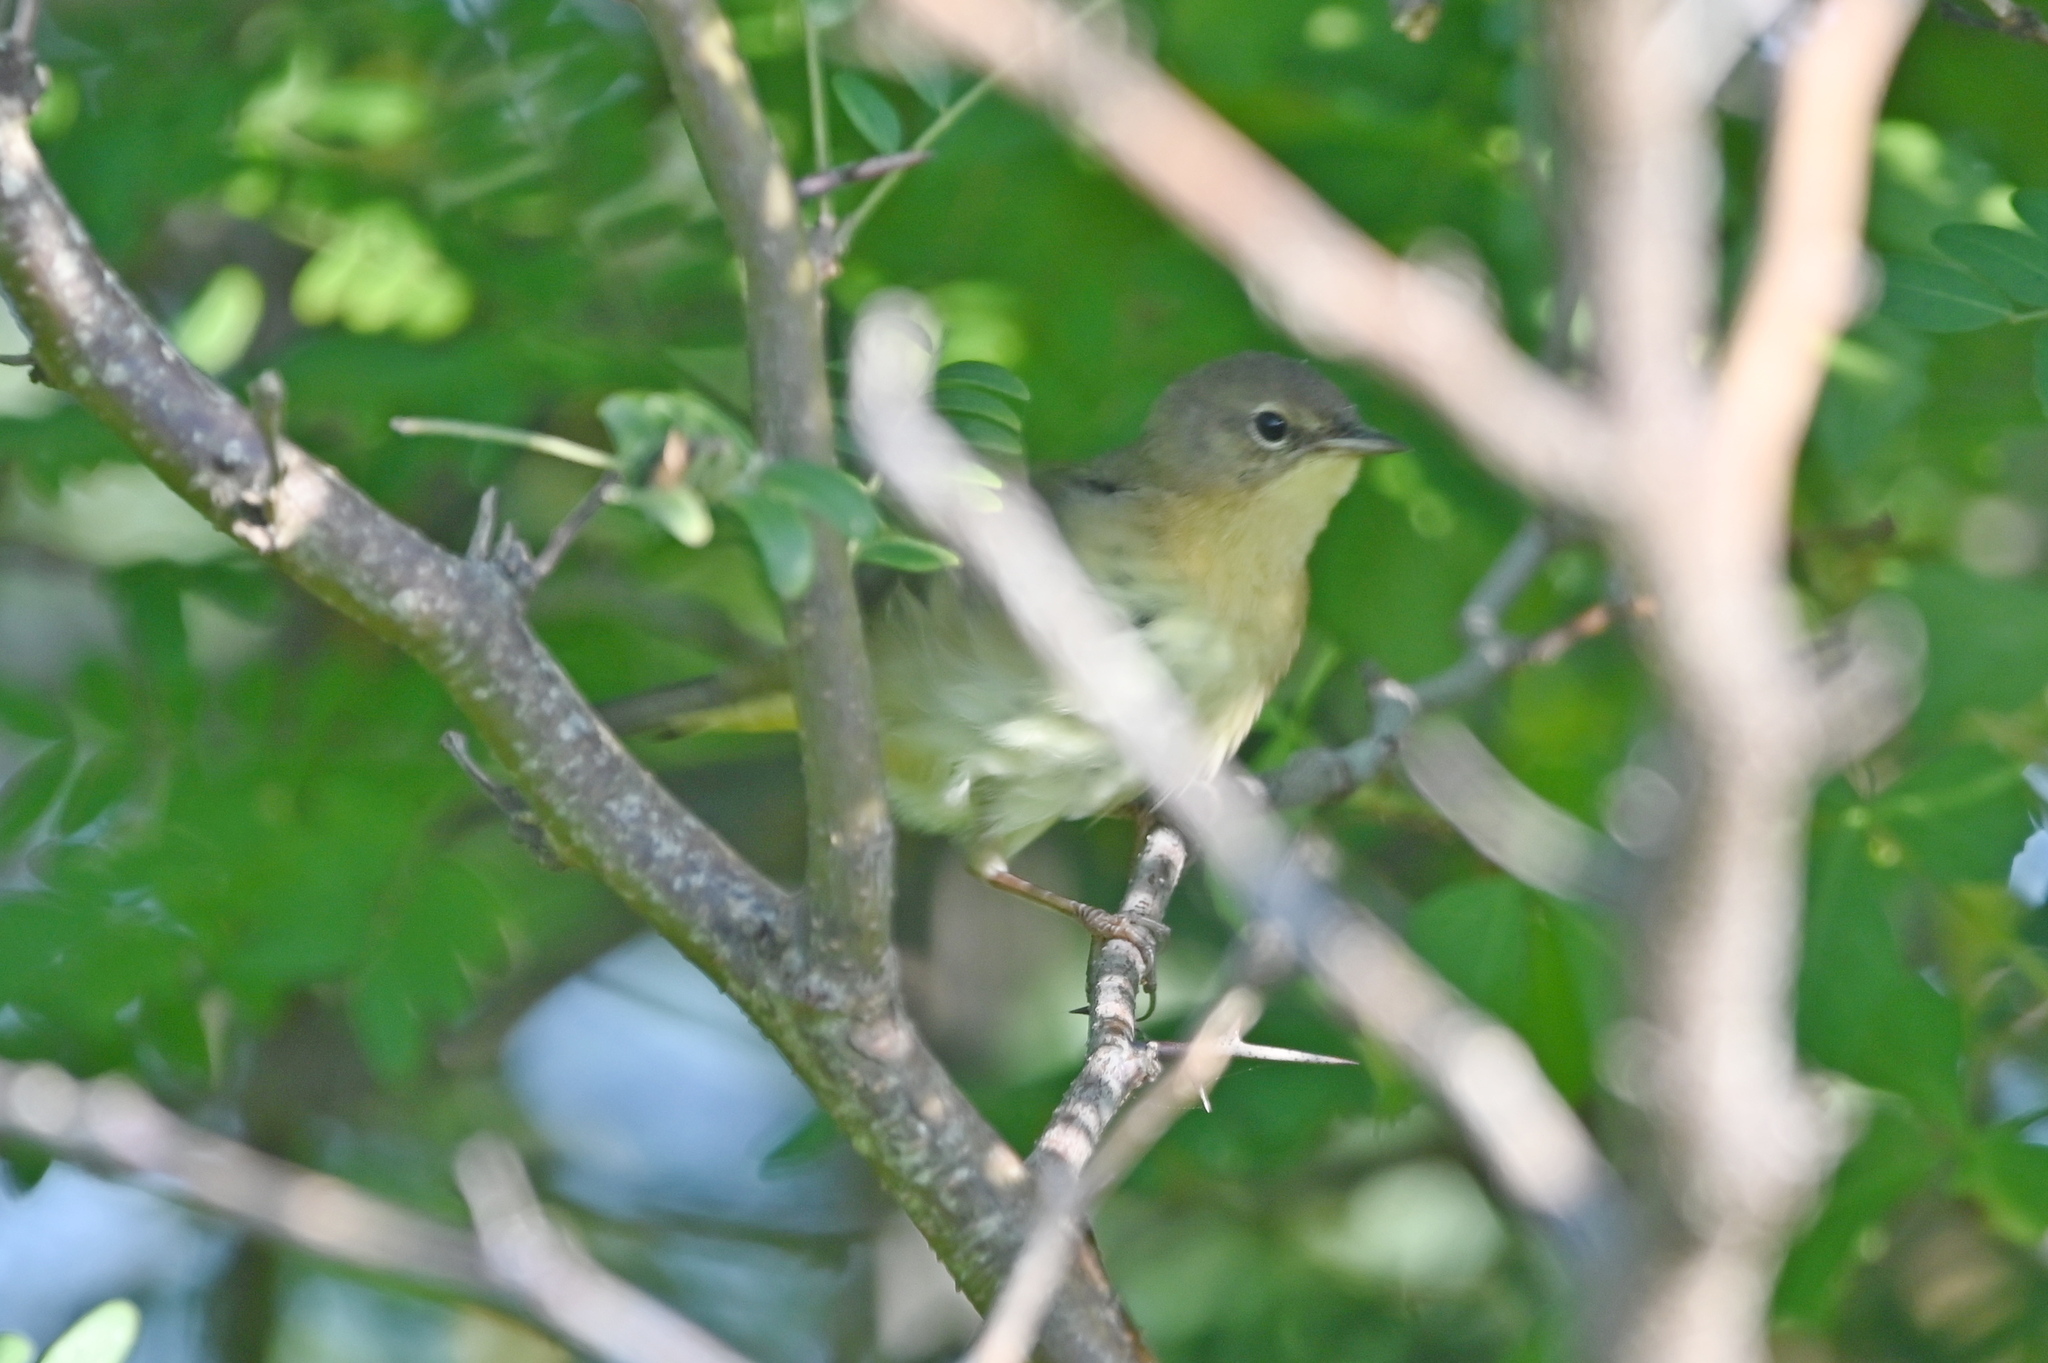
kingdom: Animalia
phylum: Chordata
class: Aves
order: Passeriformes
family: Parulidae
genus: Geothlypis
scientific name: Geothlypis trichas
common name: Common yellowthroat
